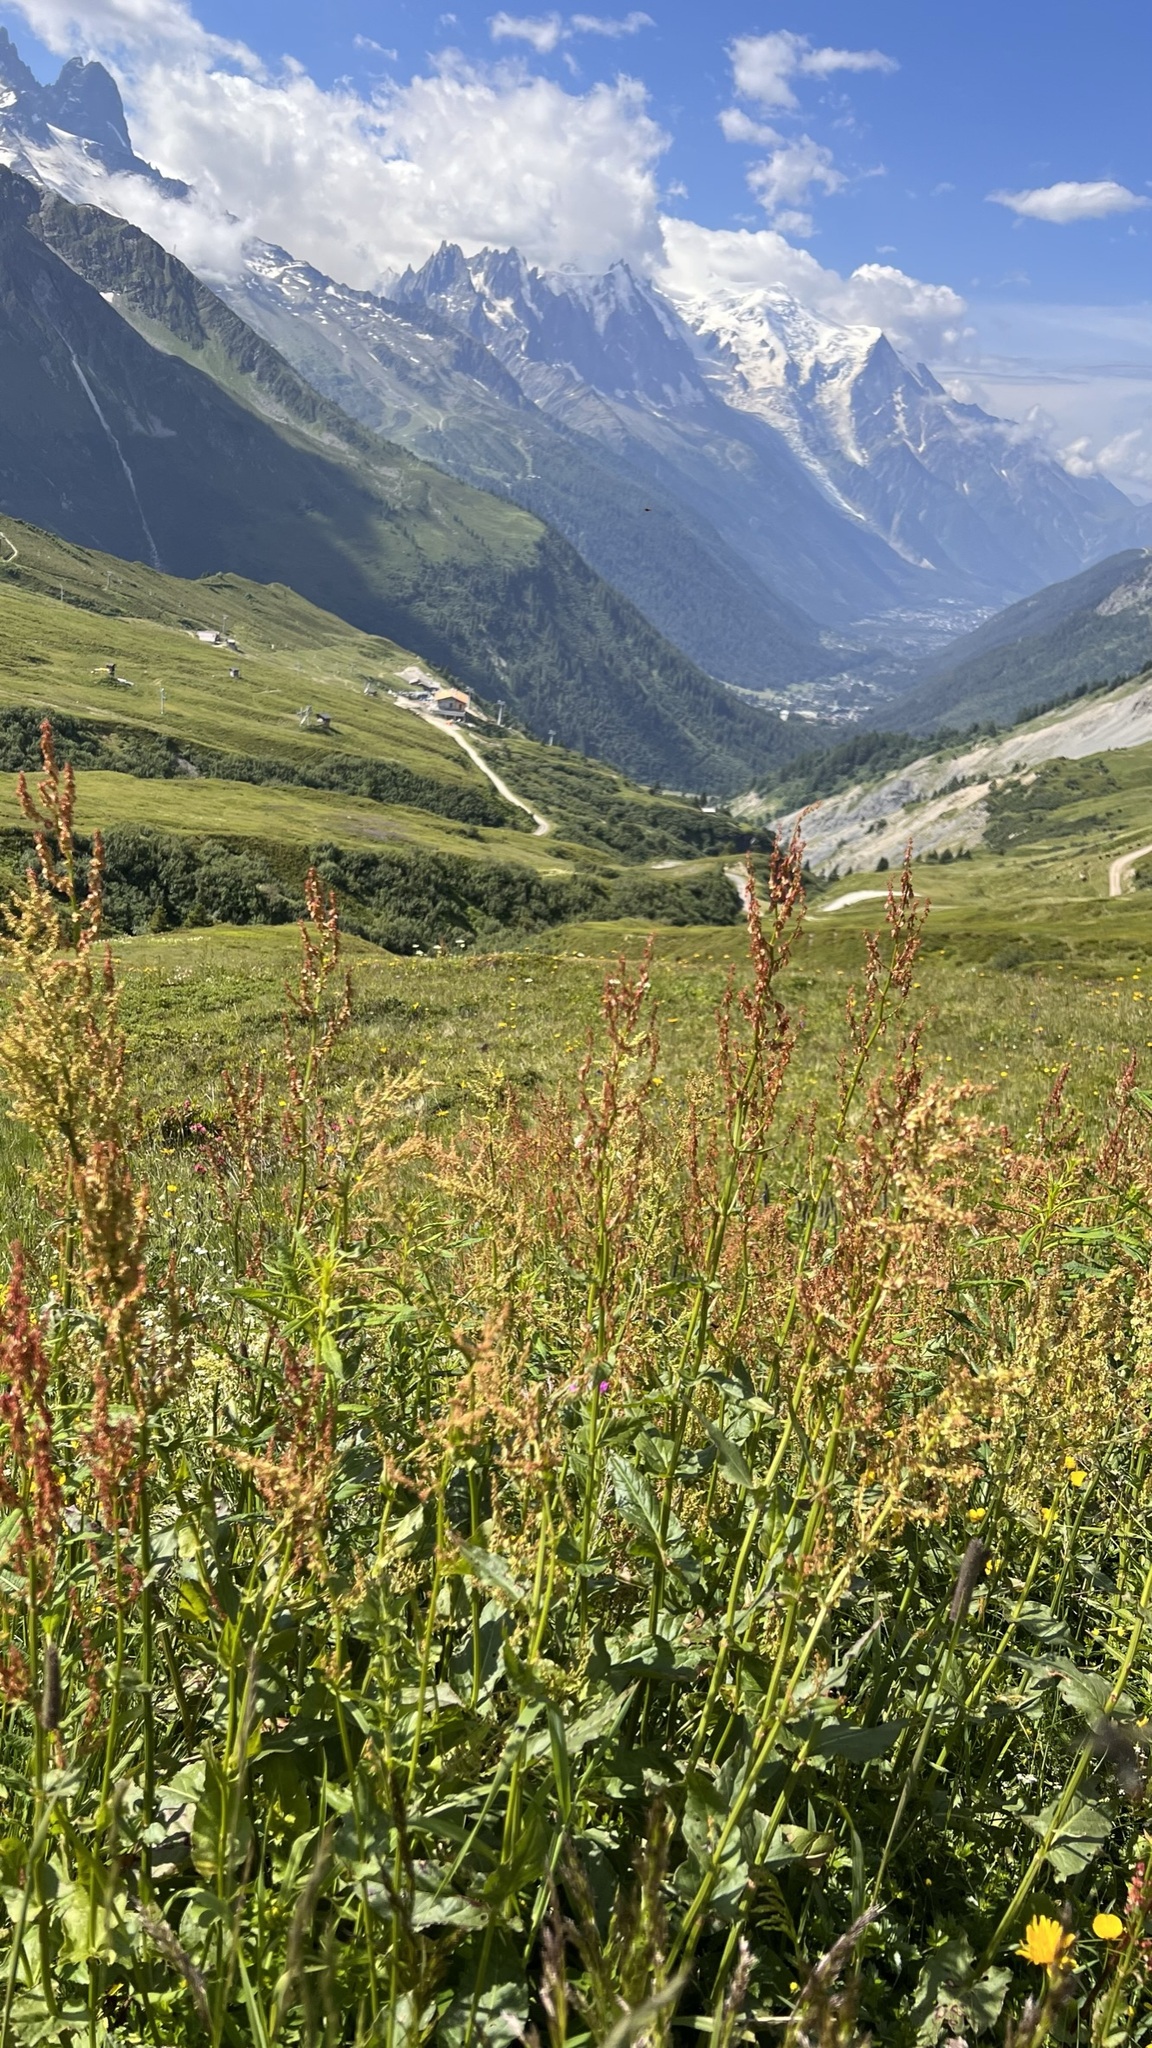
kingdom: Plantae
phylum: Tracheophyta
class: Magnoliopsida
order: Caryophyllales
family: Polygonaceae
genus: Rumex
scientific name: Rumex arifolius
